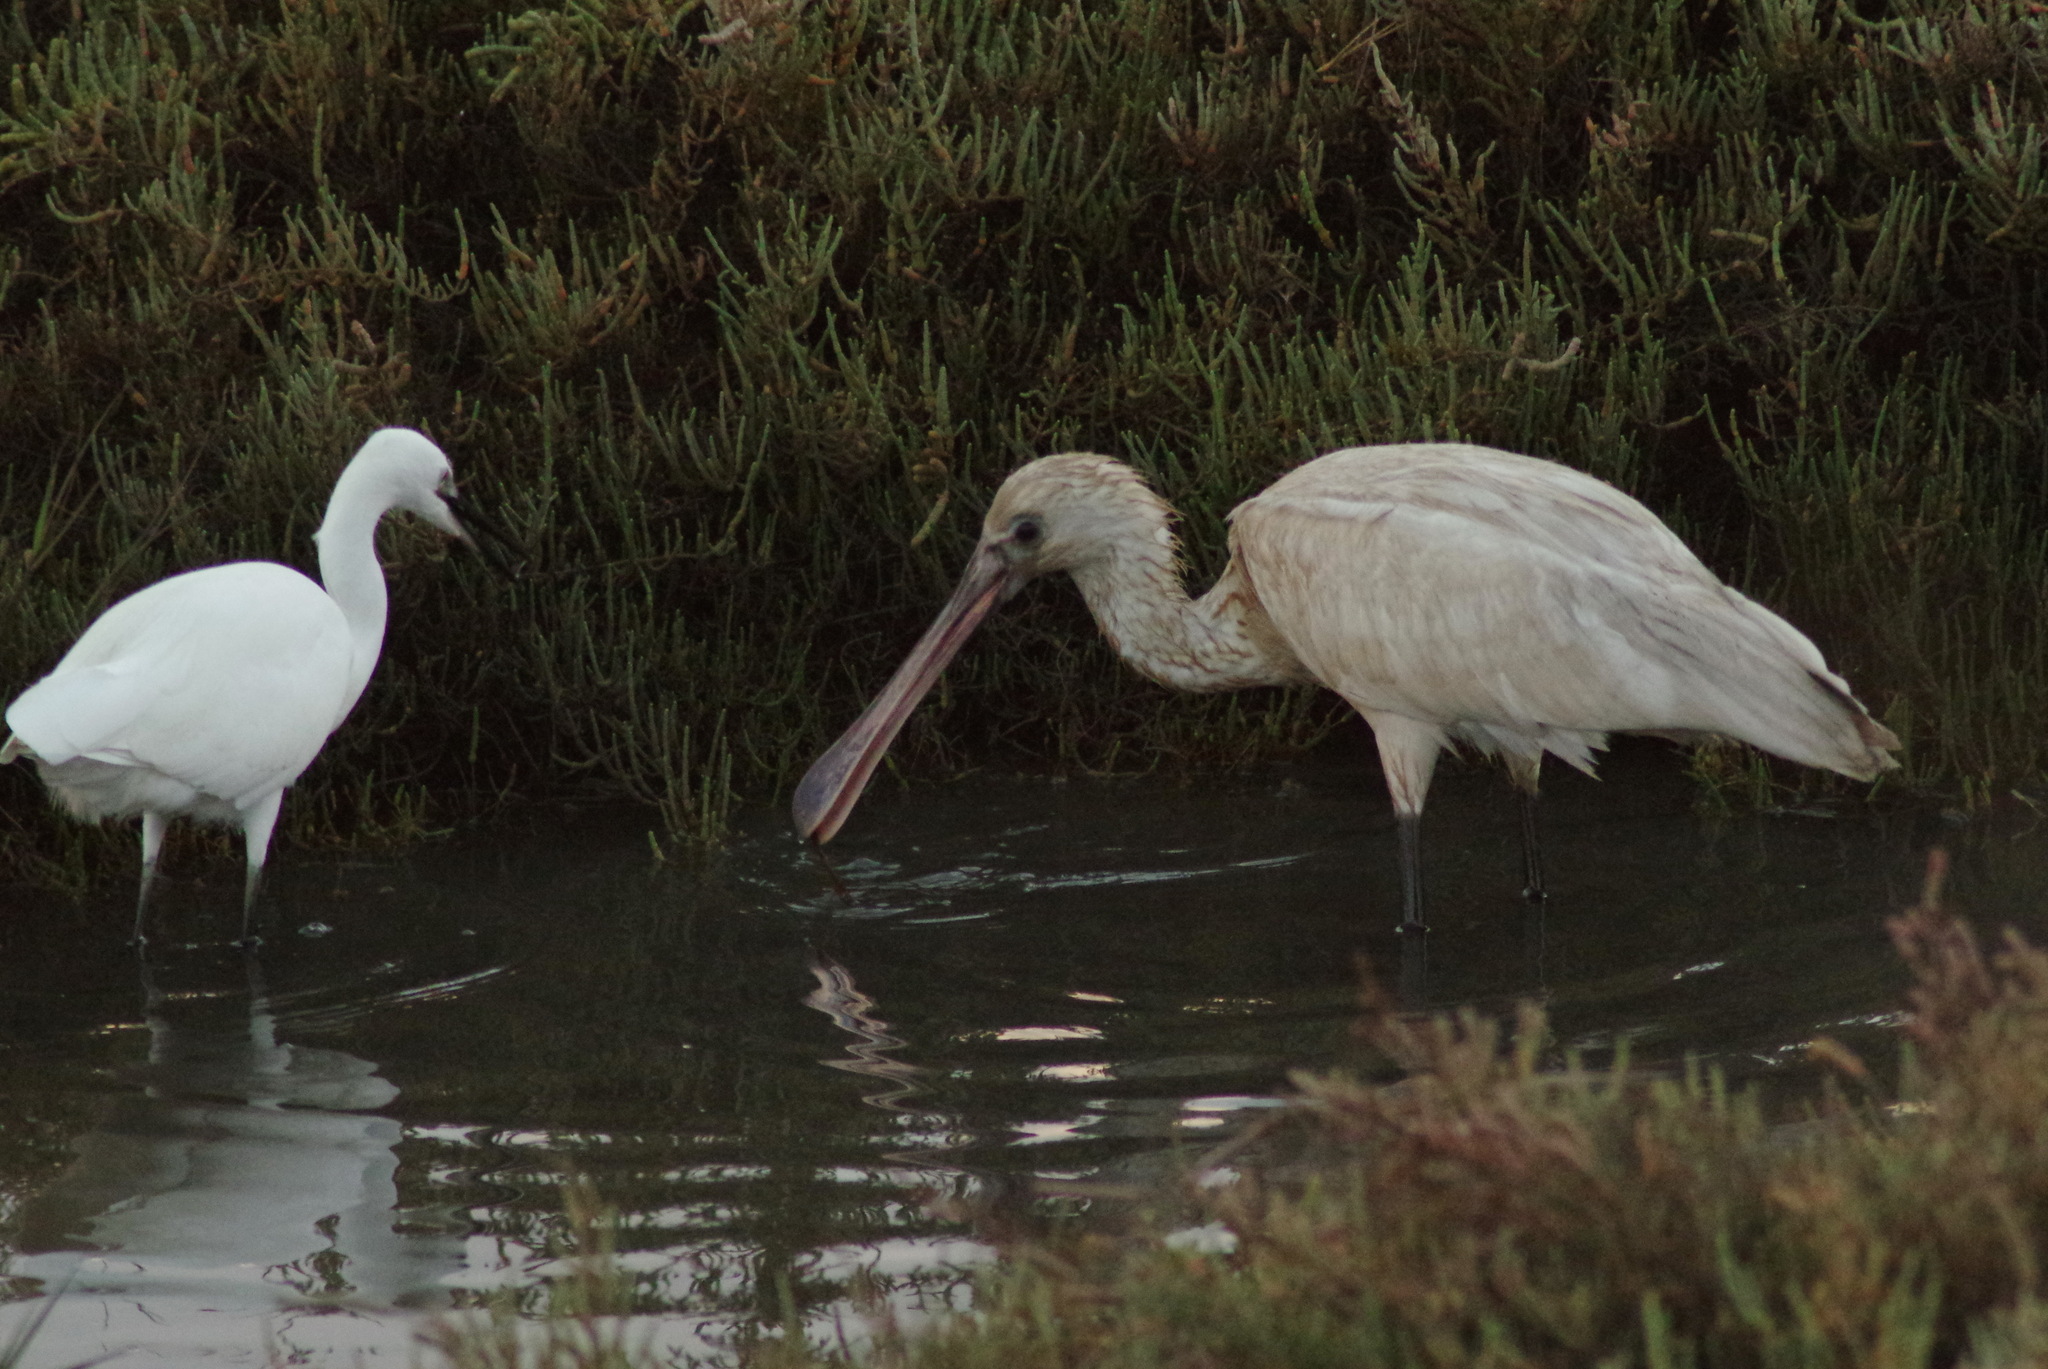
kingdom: Animalia
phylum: Chordata
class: Aves
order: Pelecaniformes
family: Threskiornithidae
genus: Platalea
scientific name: Platalea leucorodia
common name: Eurasian spoonbill
